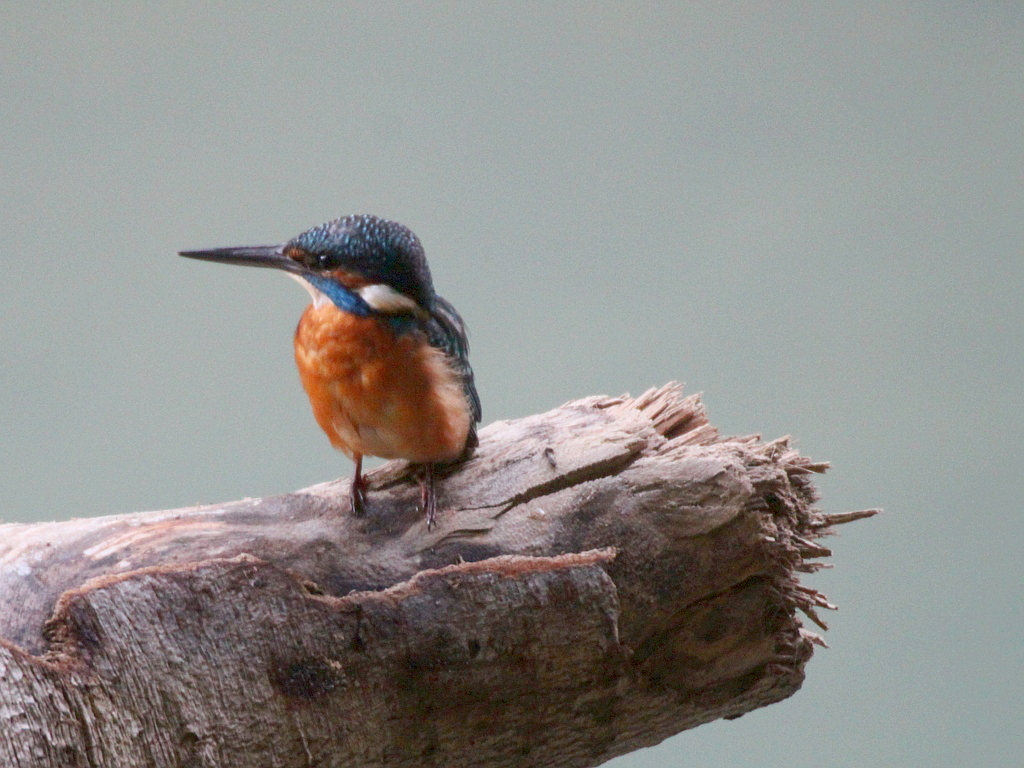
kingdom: Animalia
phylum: Chordata
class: Aves
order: Coraciiformes
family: Alcedinidae
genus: Alcedo
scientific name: Alcedo atthis
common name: Common kingfisher
